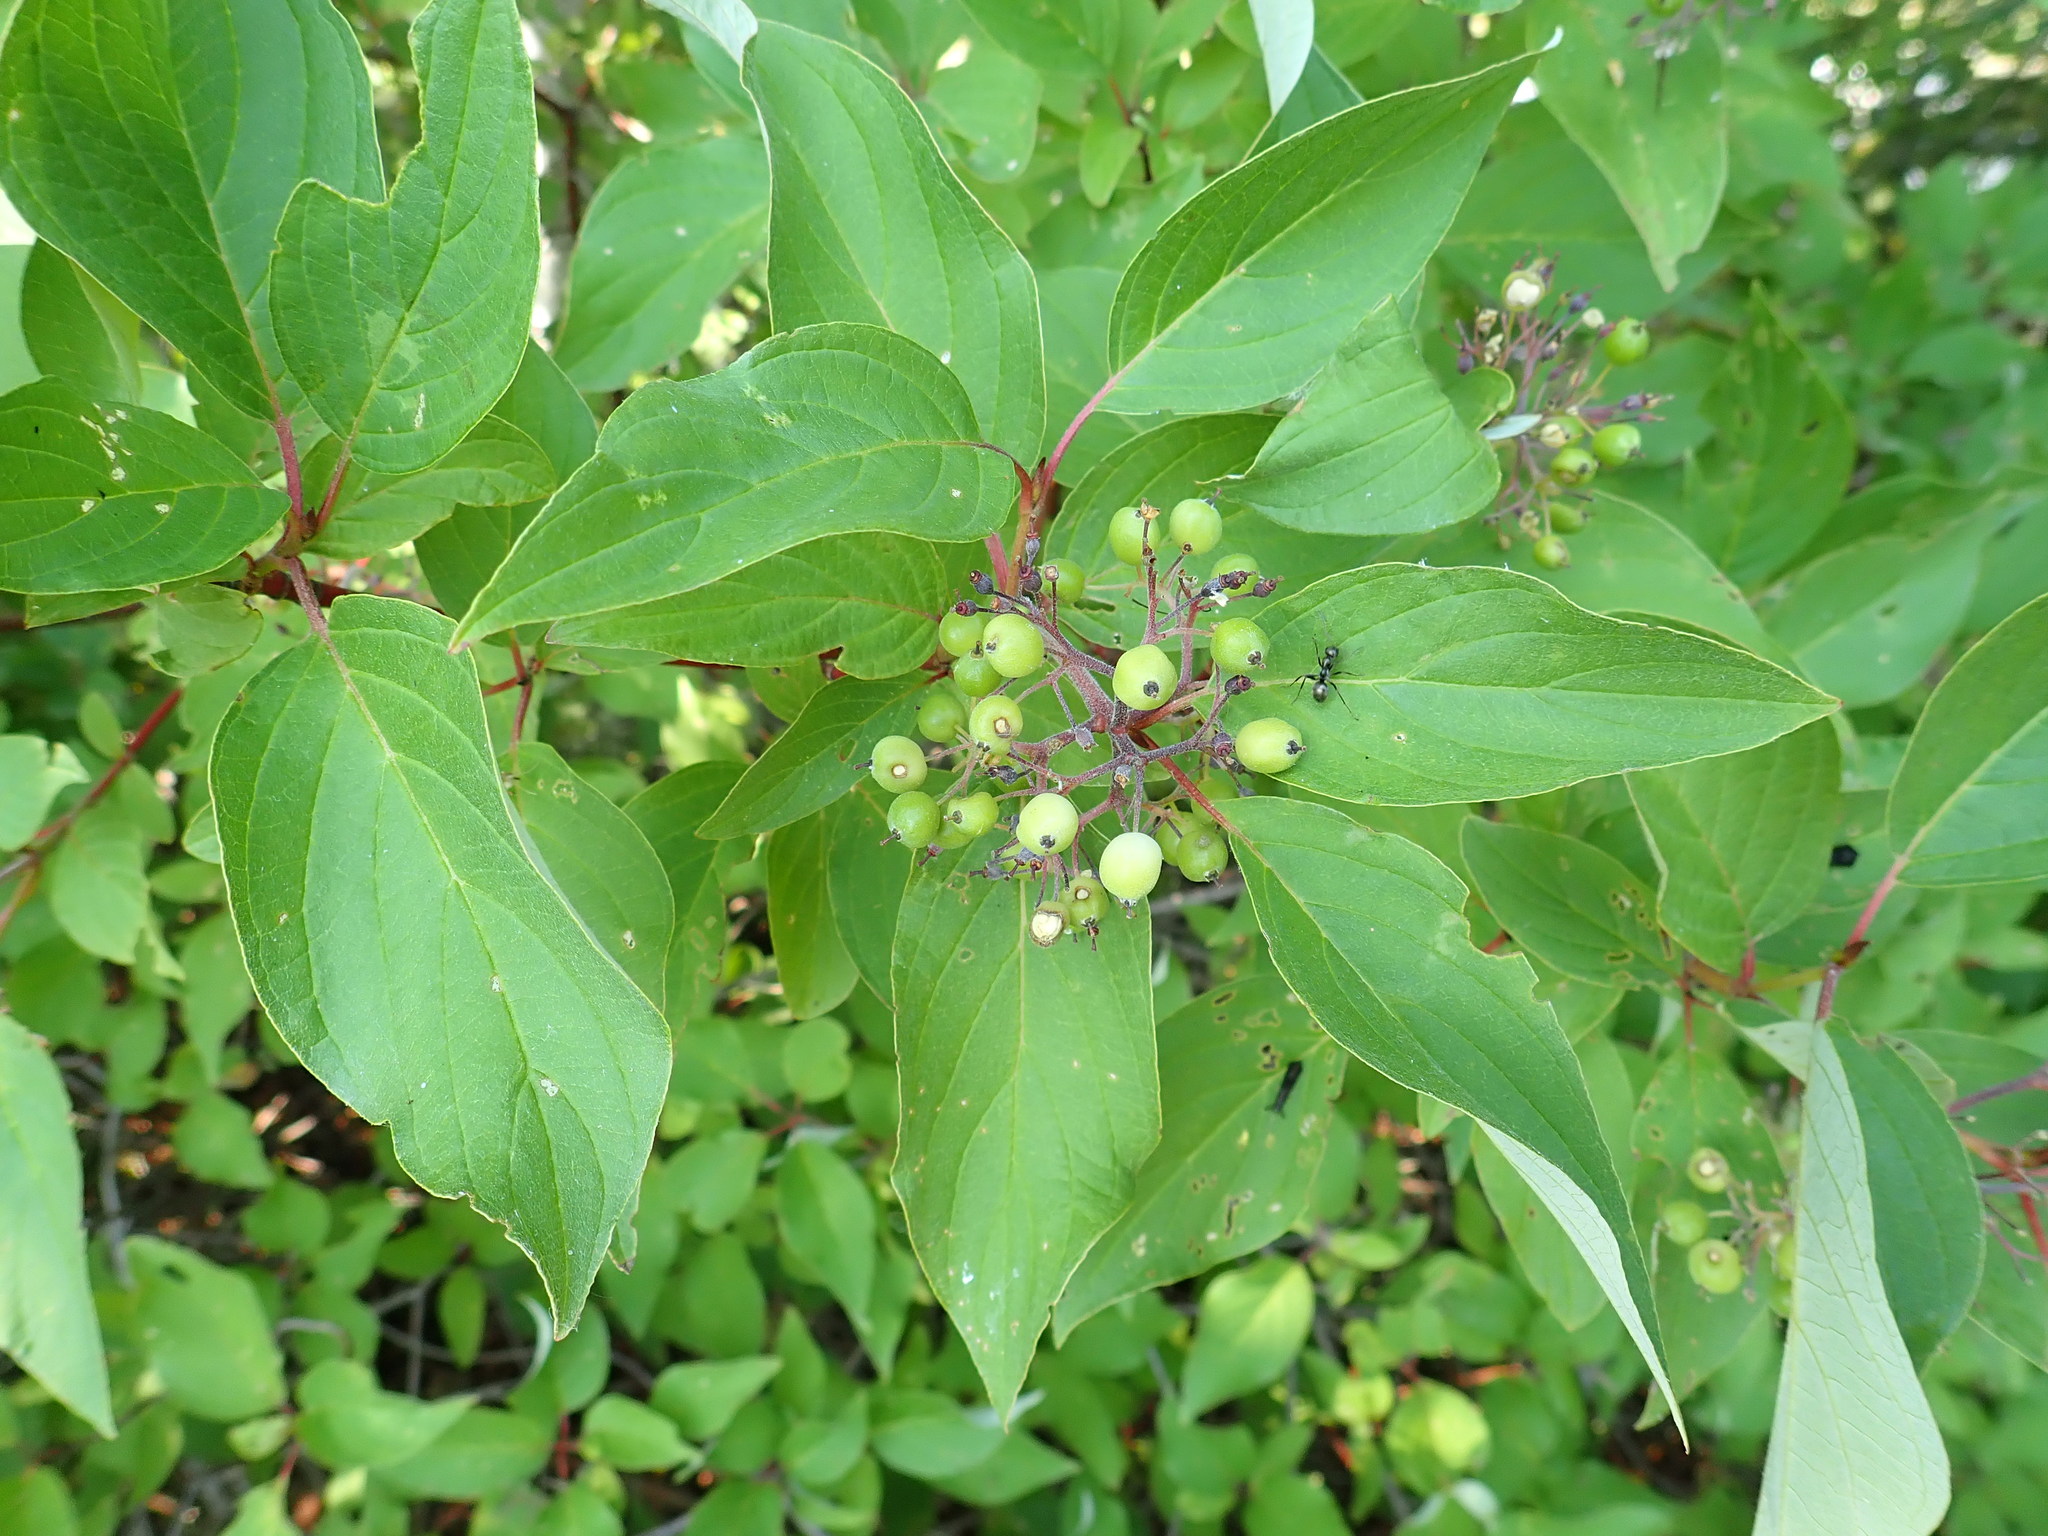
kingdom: Plantae
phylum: Tracheophyta
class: Magnoliopsida
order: Cornales
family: Cornaceae
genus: Cornus
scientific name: Cornus sericea
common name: Red-osier dogwood
